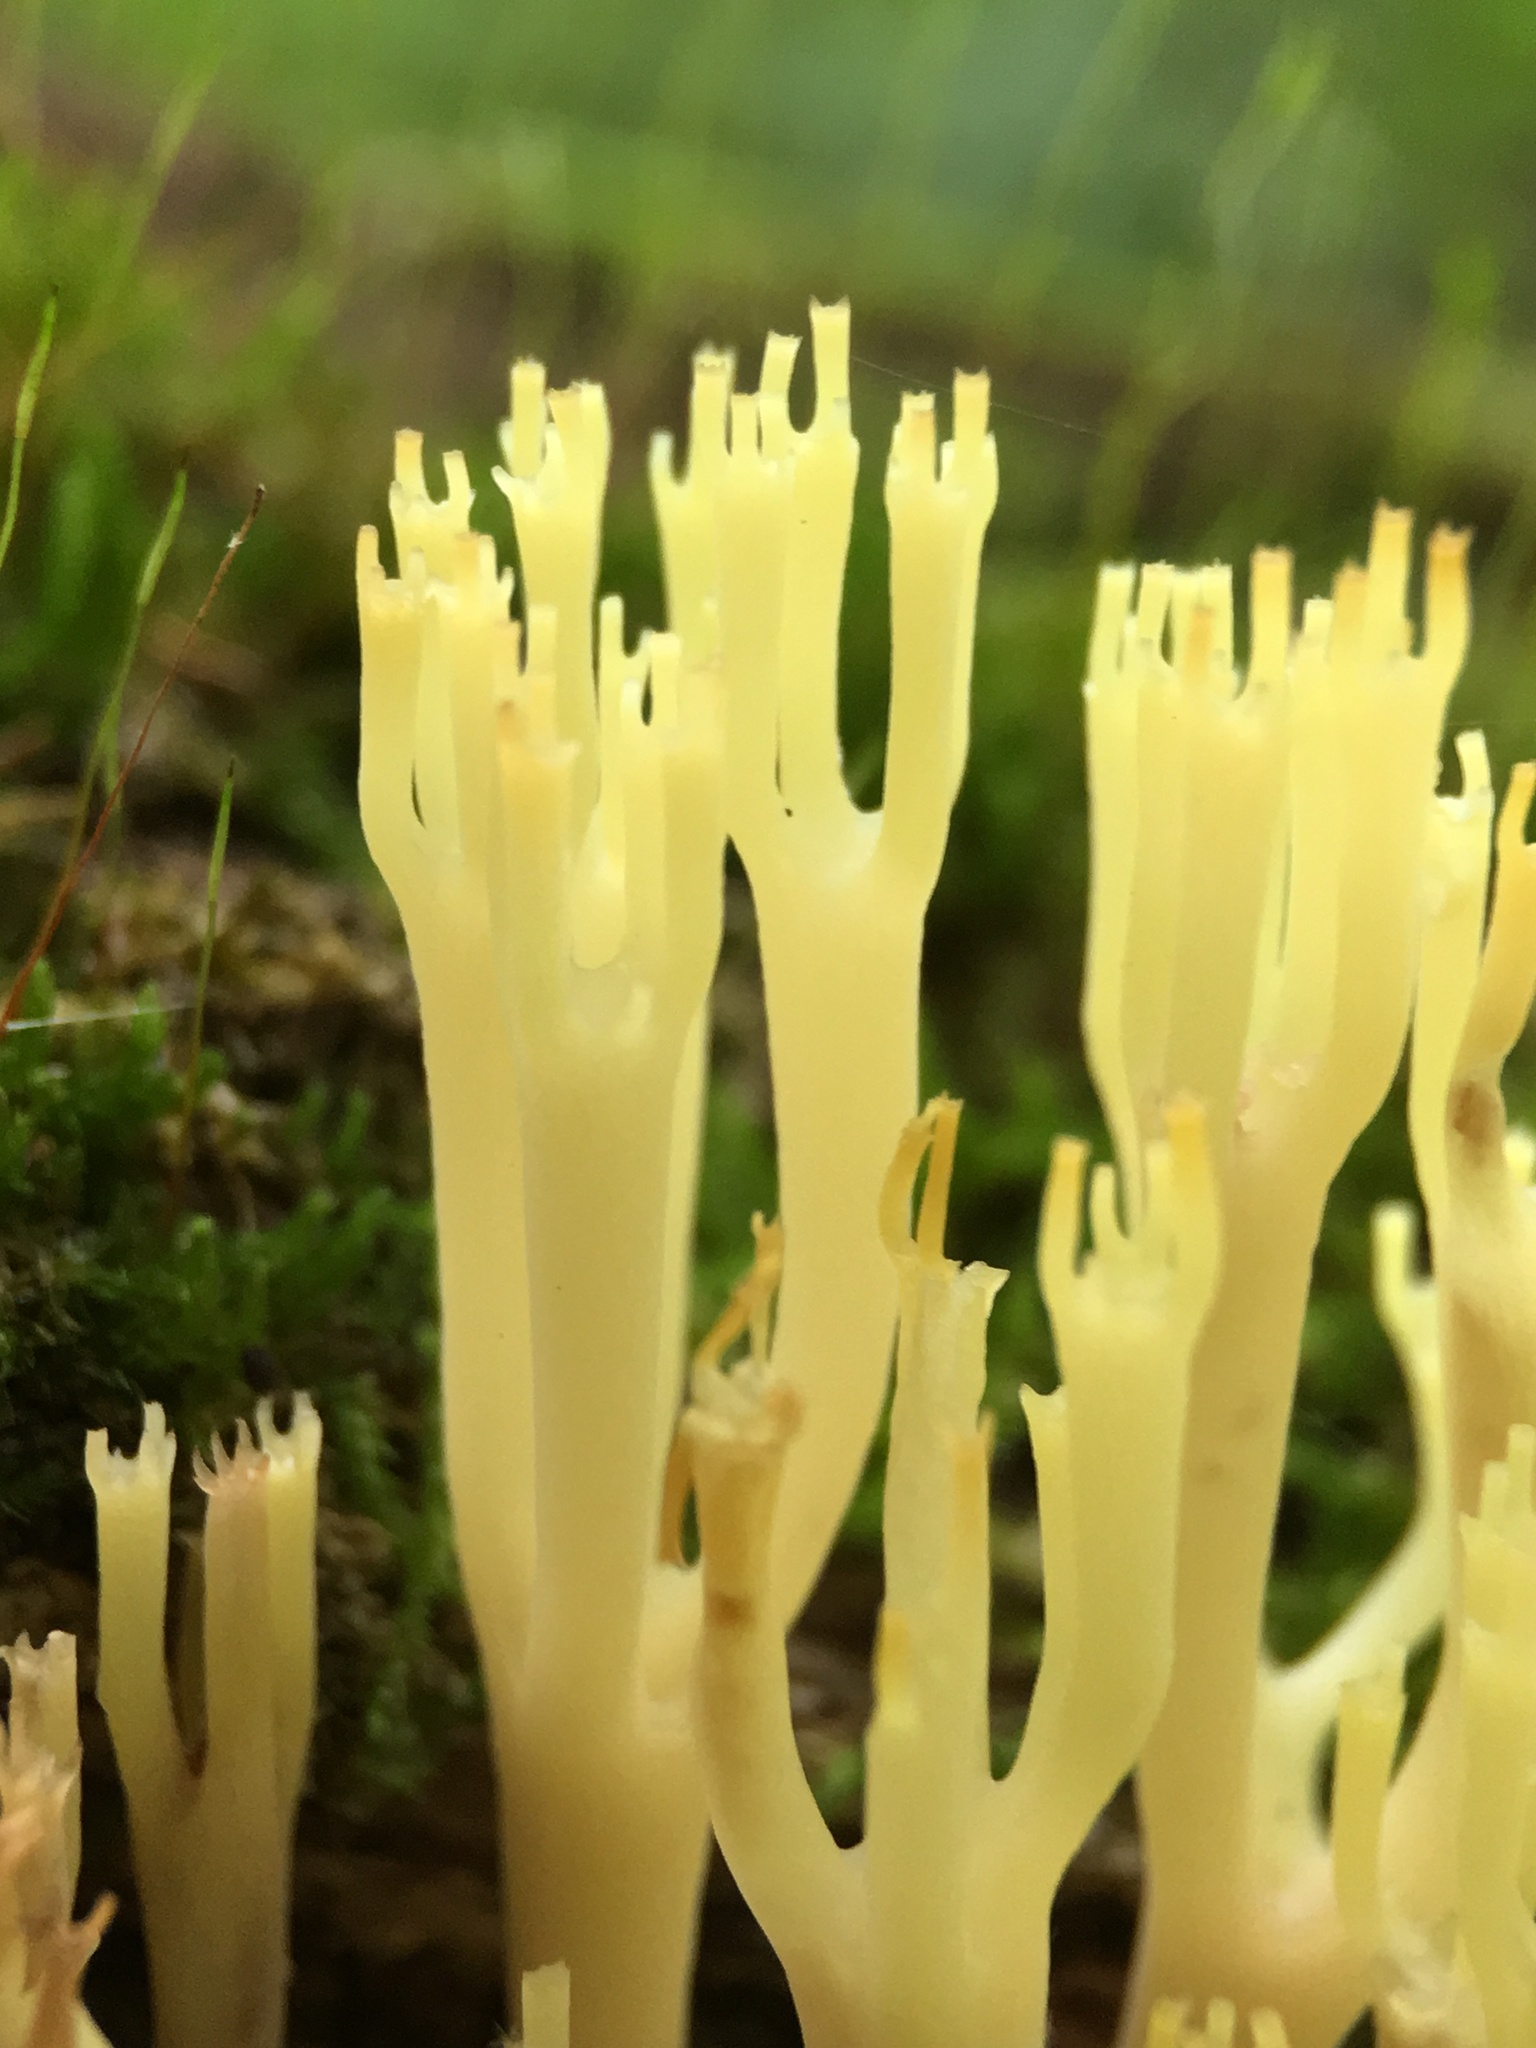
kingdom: Fungi
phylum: Basidiomycota
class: Agaricomycetes
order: Russulales
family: Auriscalpiaceae
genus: Artomyces
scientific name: Artomyces pyxidatus
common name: Crown-tipped coral fungus
